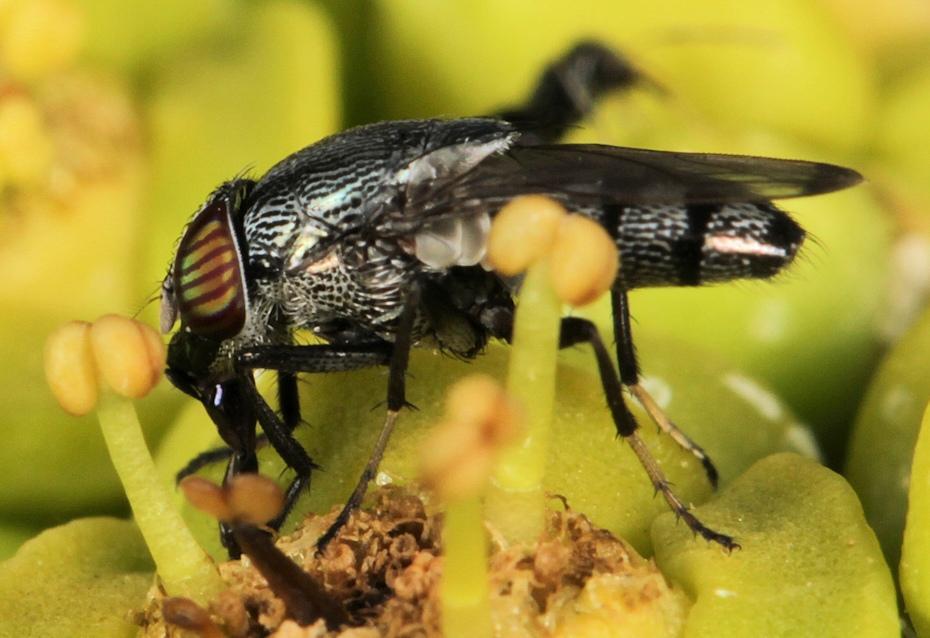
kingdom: Animalia
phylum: Arthropoda
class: Insecta
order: Diptera
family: Calliphoridae
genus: Stomorhina
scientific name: Stomorhina rugosa
